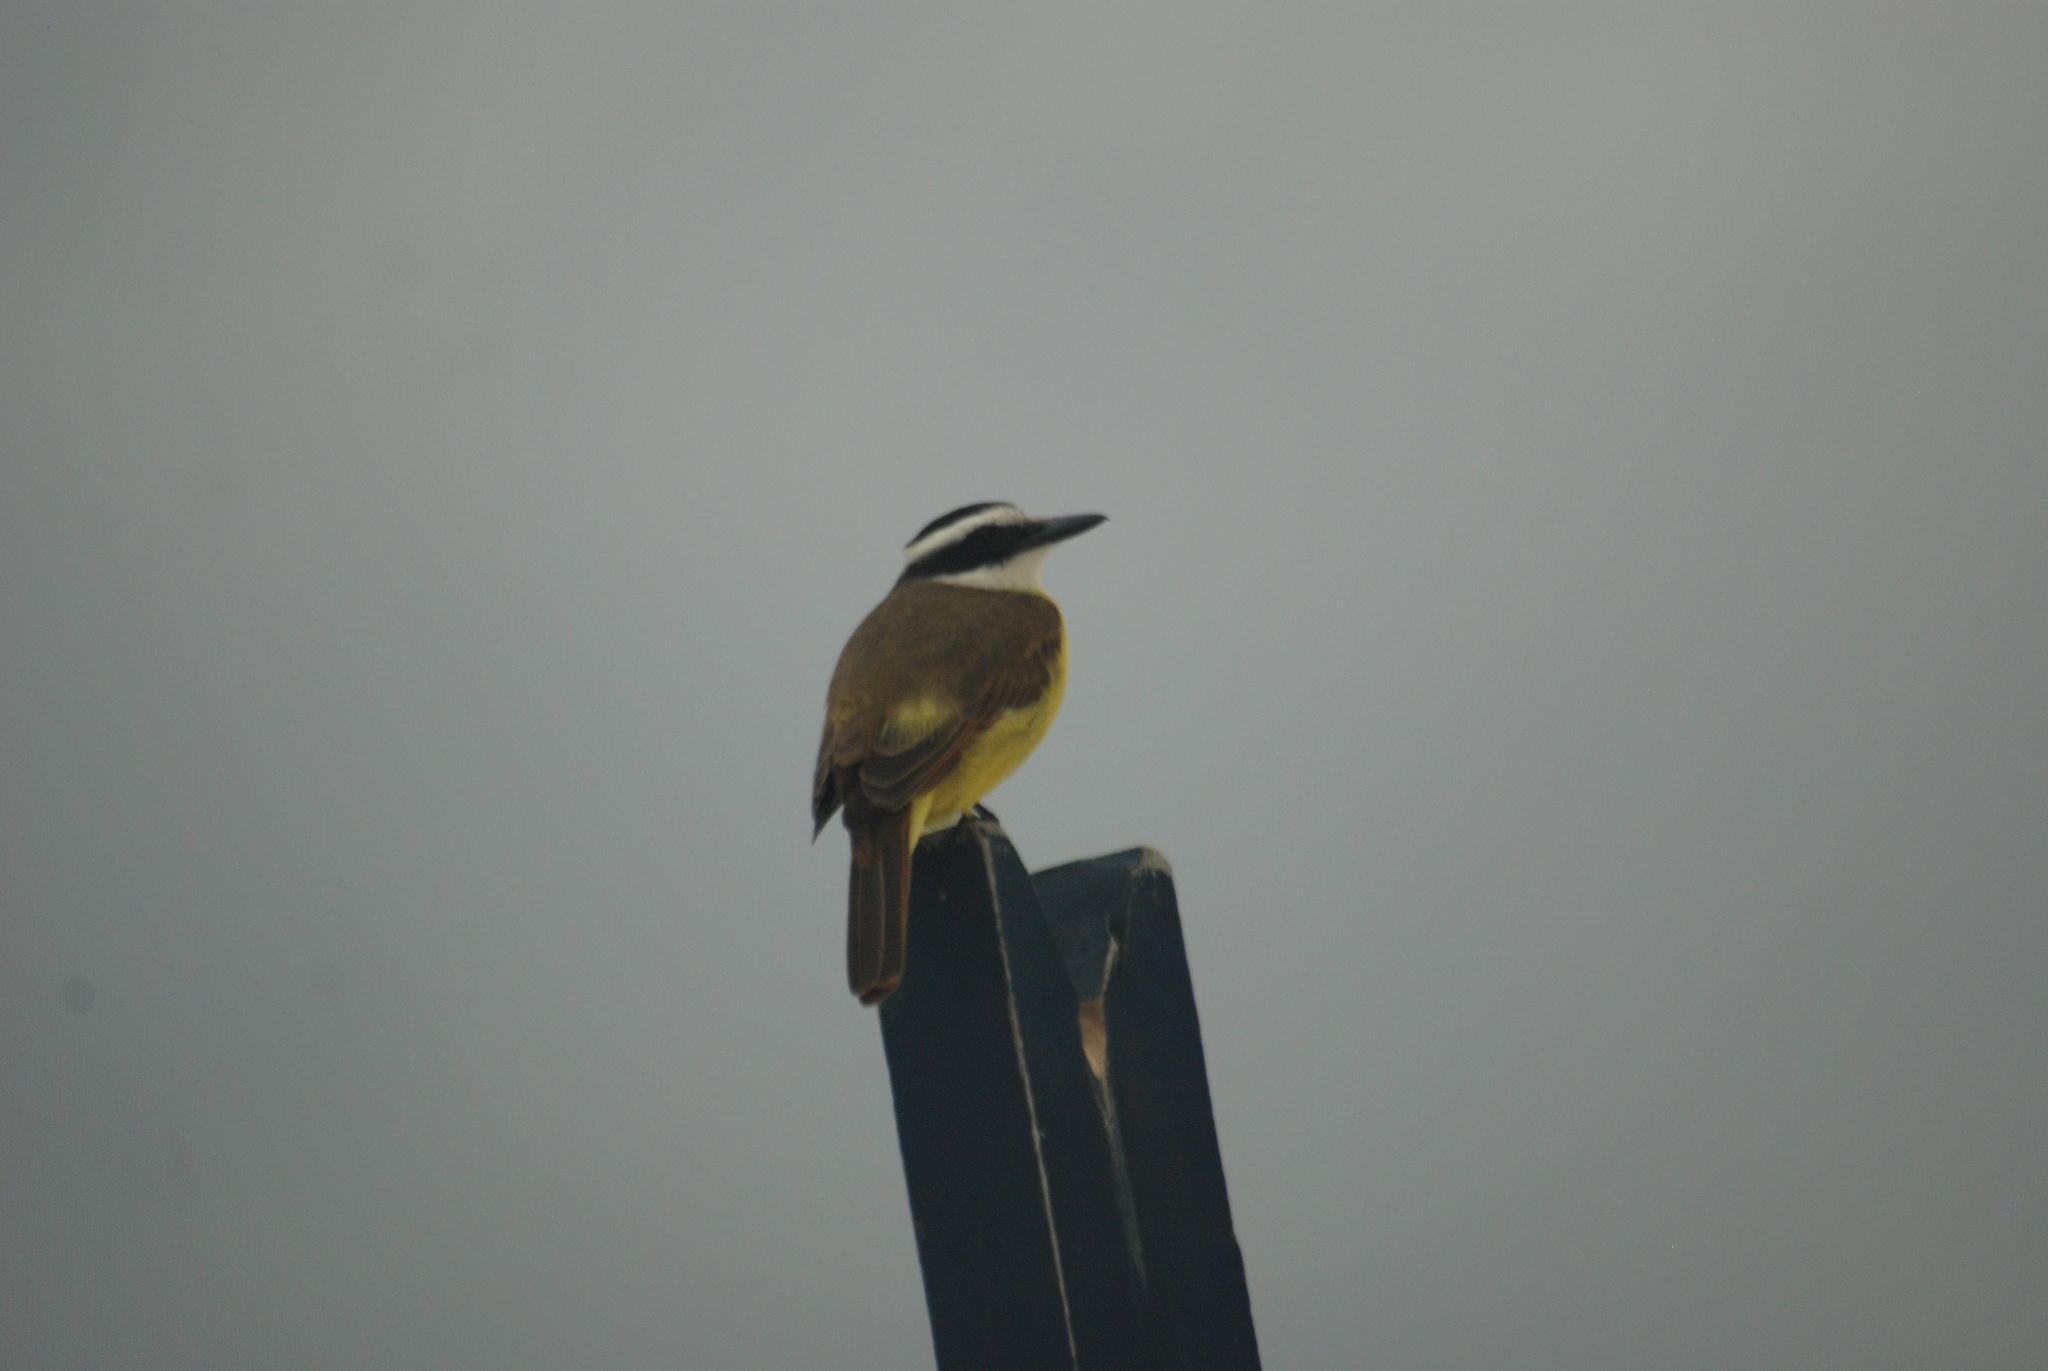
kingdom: Animalia
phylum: Chordata
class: Aves
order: Passeriformes
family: Tyrannidae
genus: Pitangus
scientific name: Pitangus sulphuratus
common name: Great kiskadee
